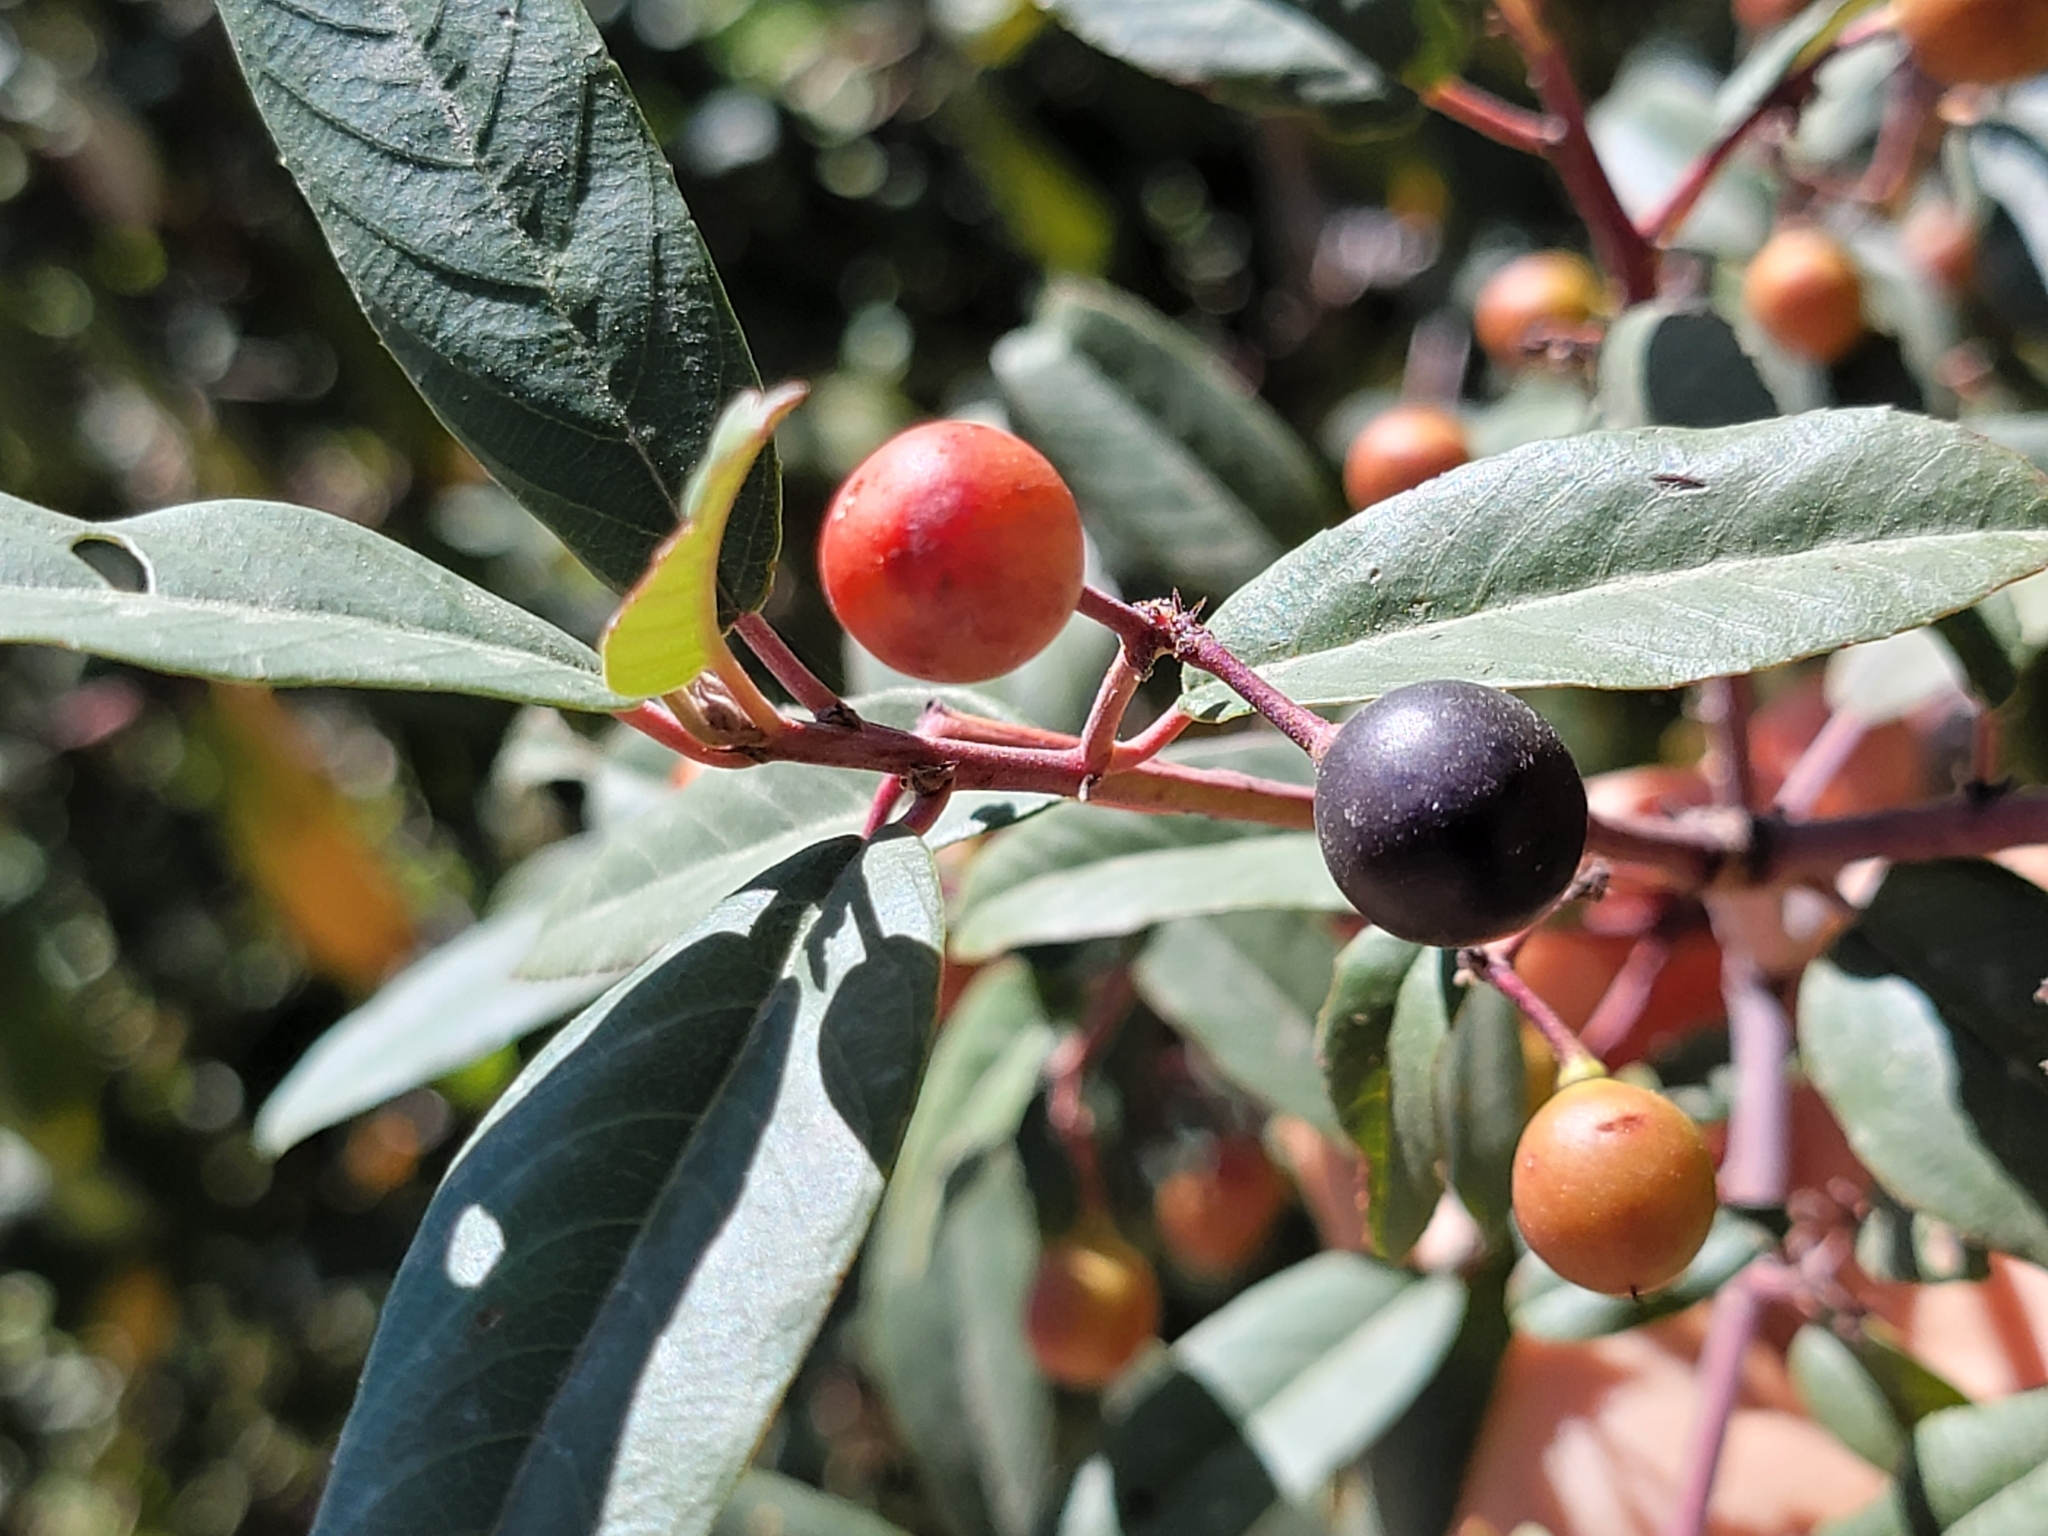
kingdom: Plantae
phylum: Tracheophyta
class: Magnoliopsida
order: Rosales
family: Rhamnaceae
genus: Frangula
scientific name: Frangula californica
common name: California buckthorn
